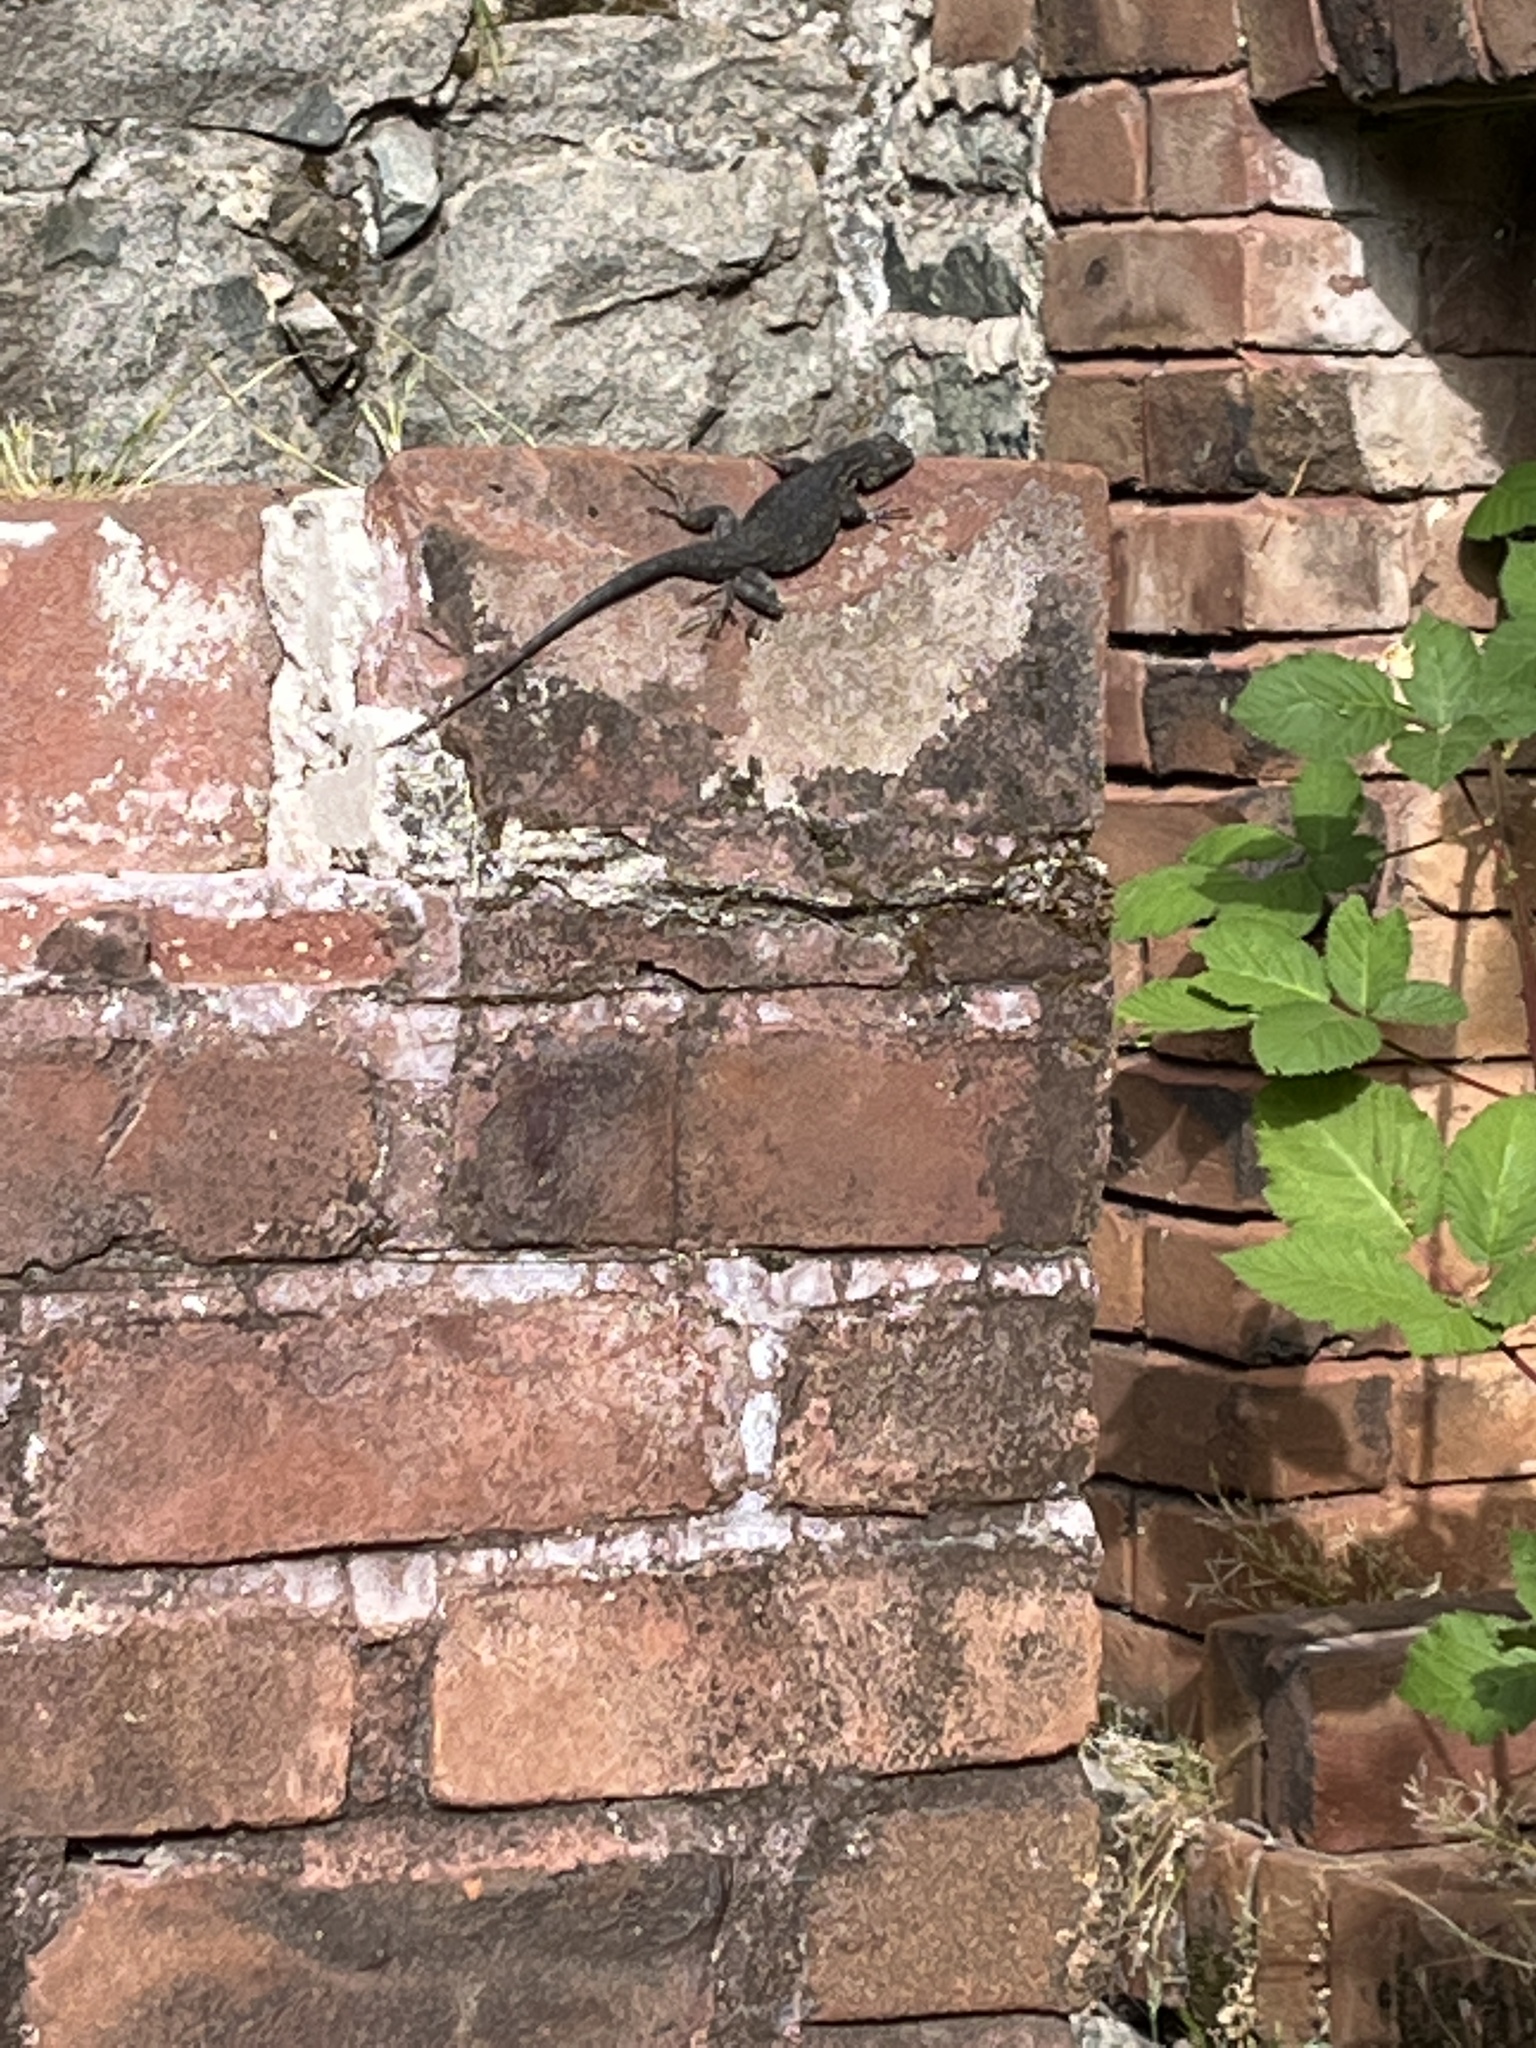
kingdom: Animalia
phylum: Chordata
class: Squamata
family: Phrynosomatidae
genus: Sceloporus
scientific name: Sceloporus occidentalis
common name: Western fence lizard
